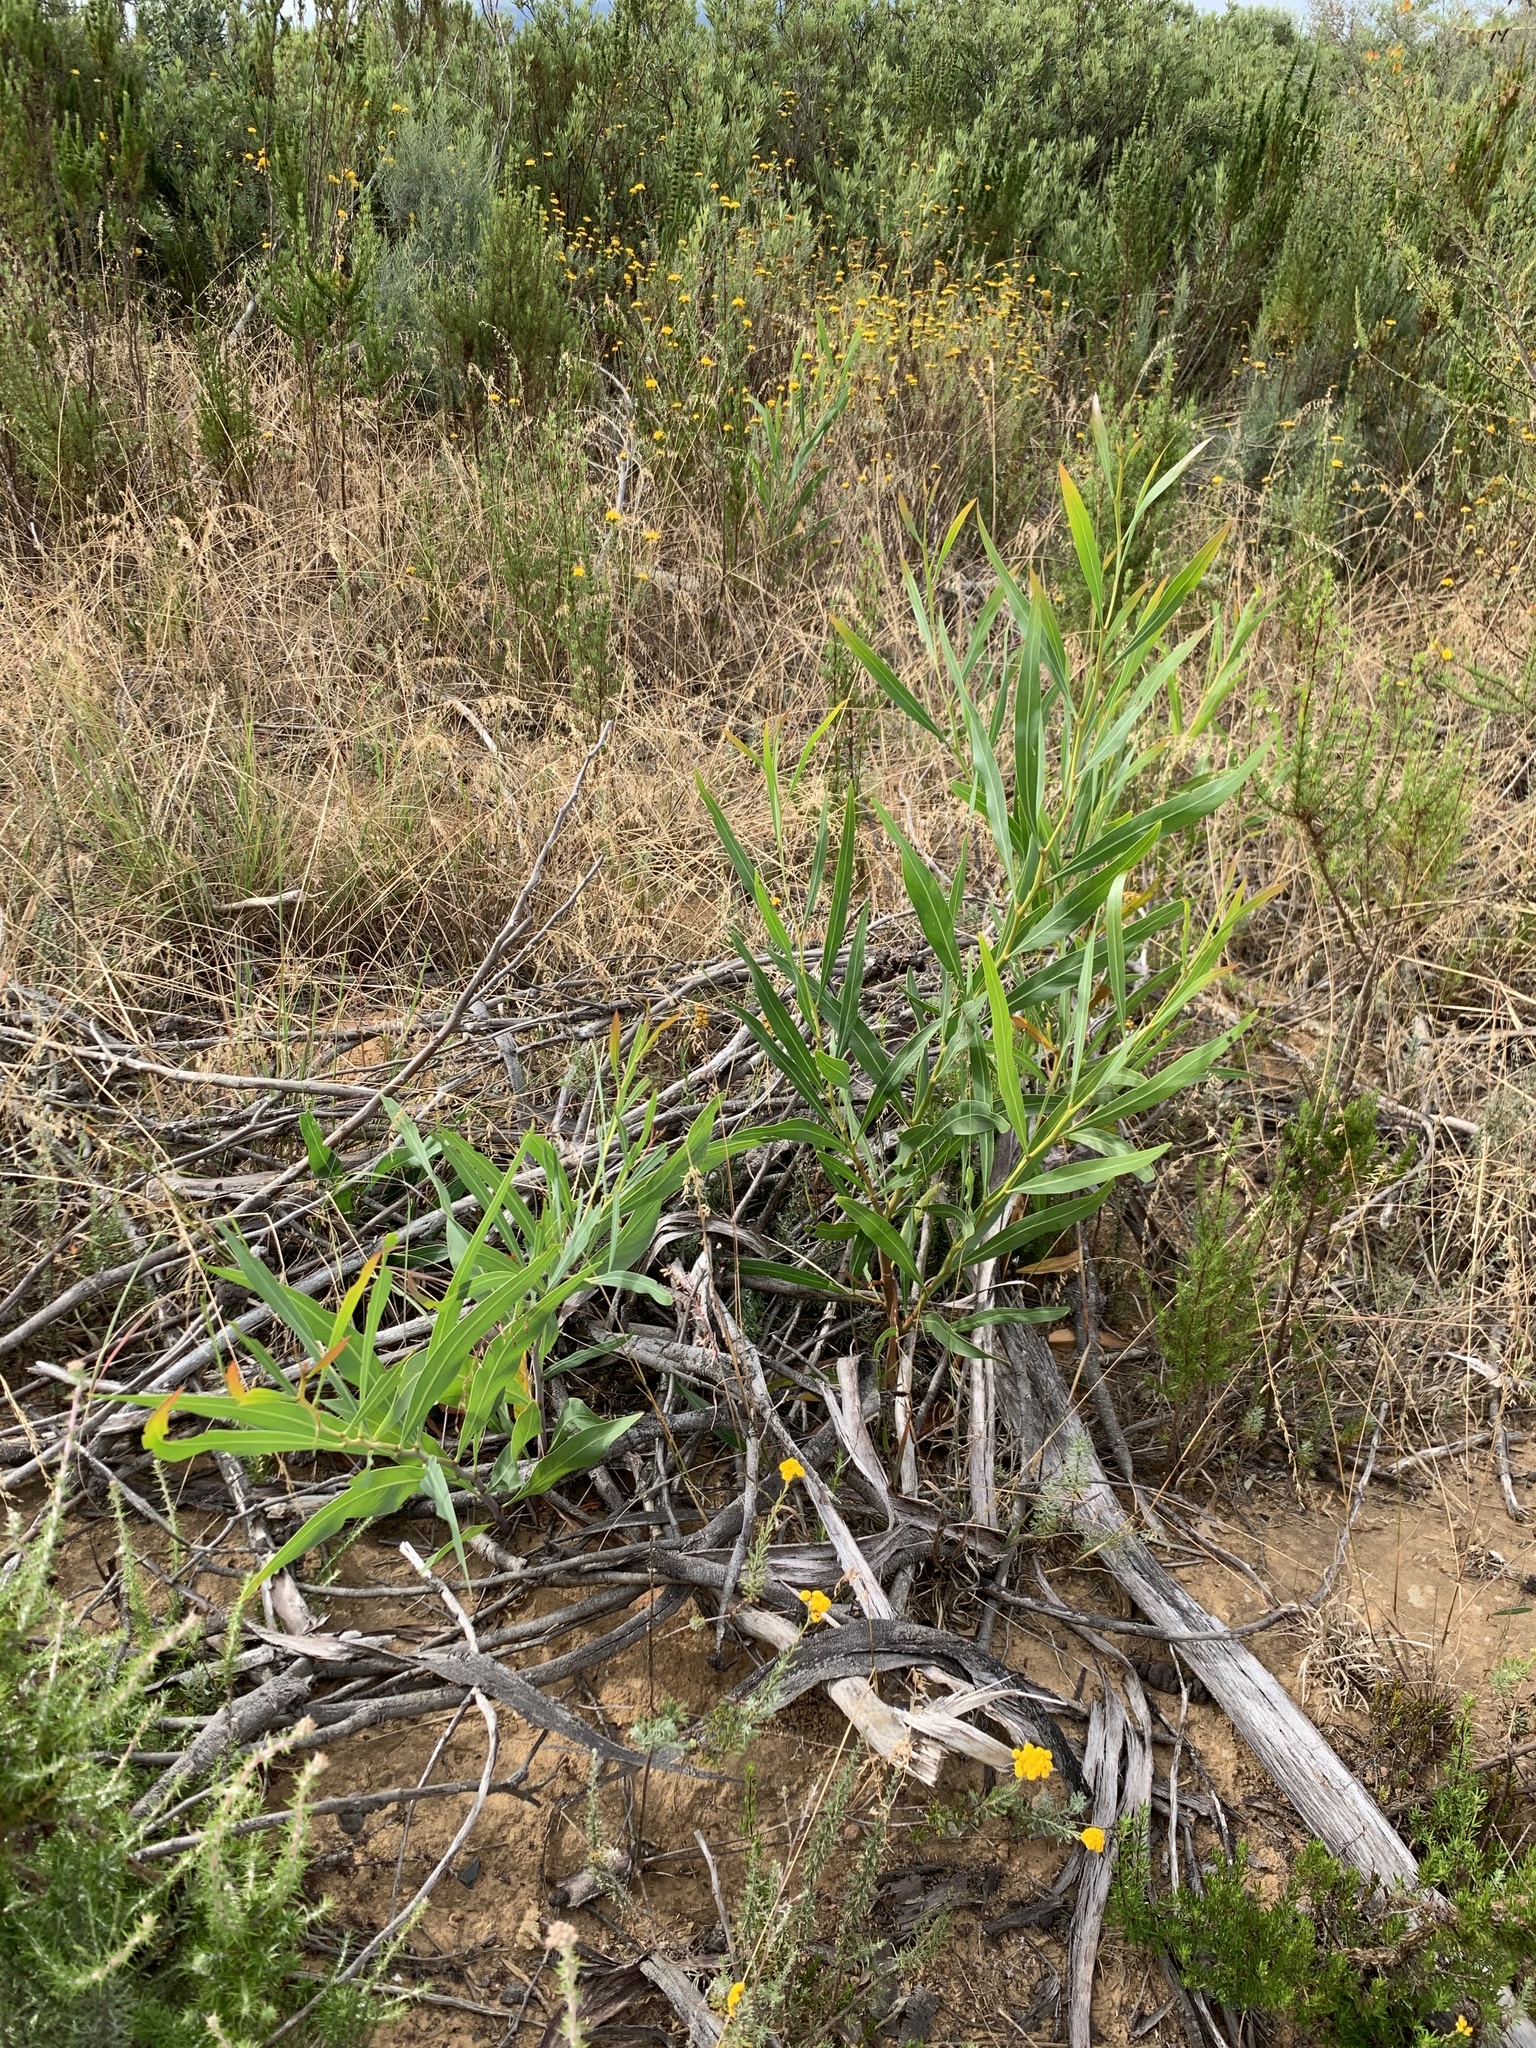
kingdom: Plantae
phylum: Tracheophyta
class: Magnoliopsida
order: Fabales
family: Fabaceae
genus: Acacia
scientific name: Acacia saligna
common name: Orange wattle
